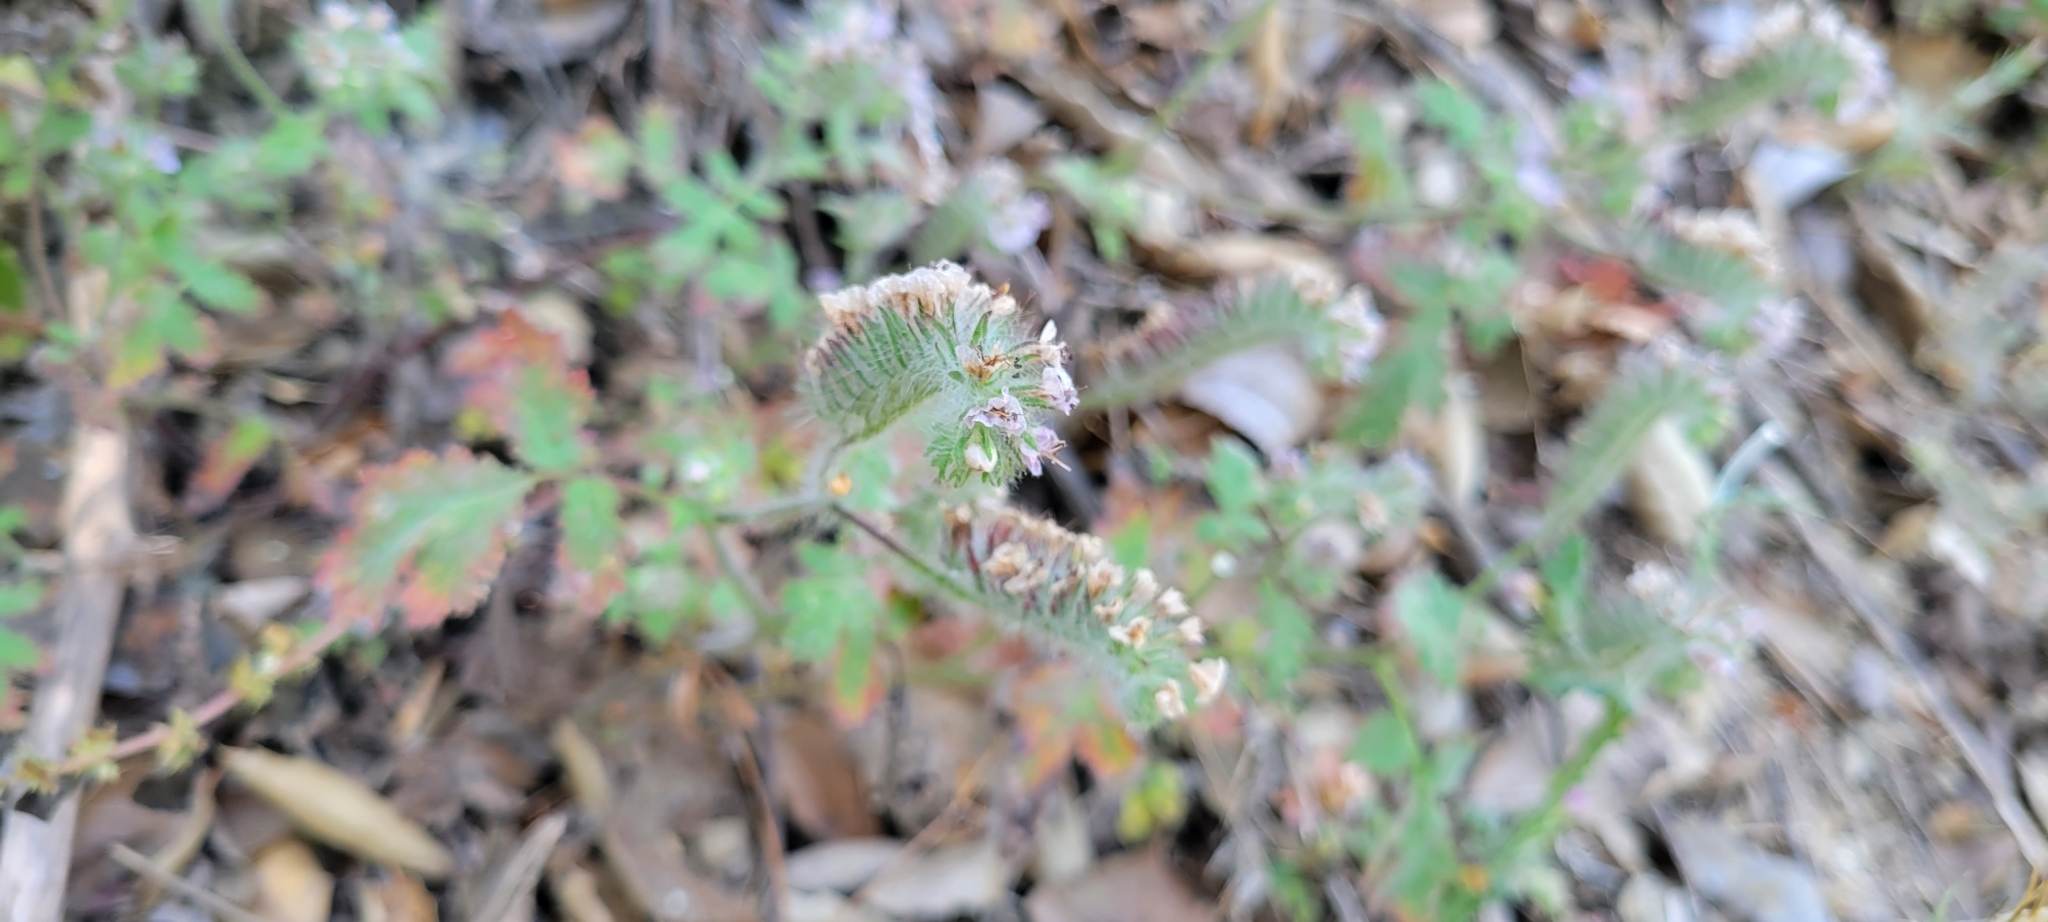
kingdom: Plantae
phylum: Tracheophyta
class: Magnoliopsida
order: Boraginales
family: Hydrophyllaceae
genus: Phacelia
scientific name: Phacelia cicutaria
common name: Caterpillar phacelia
